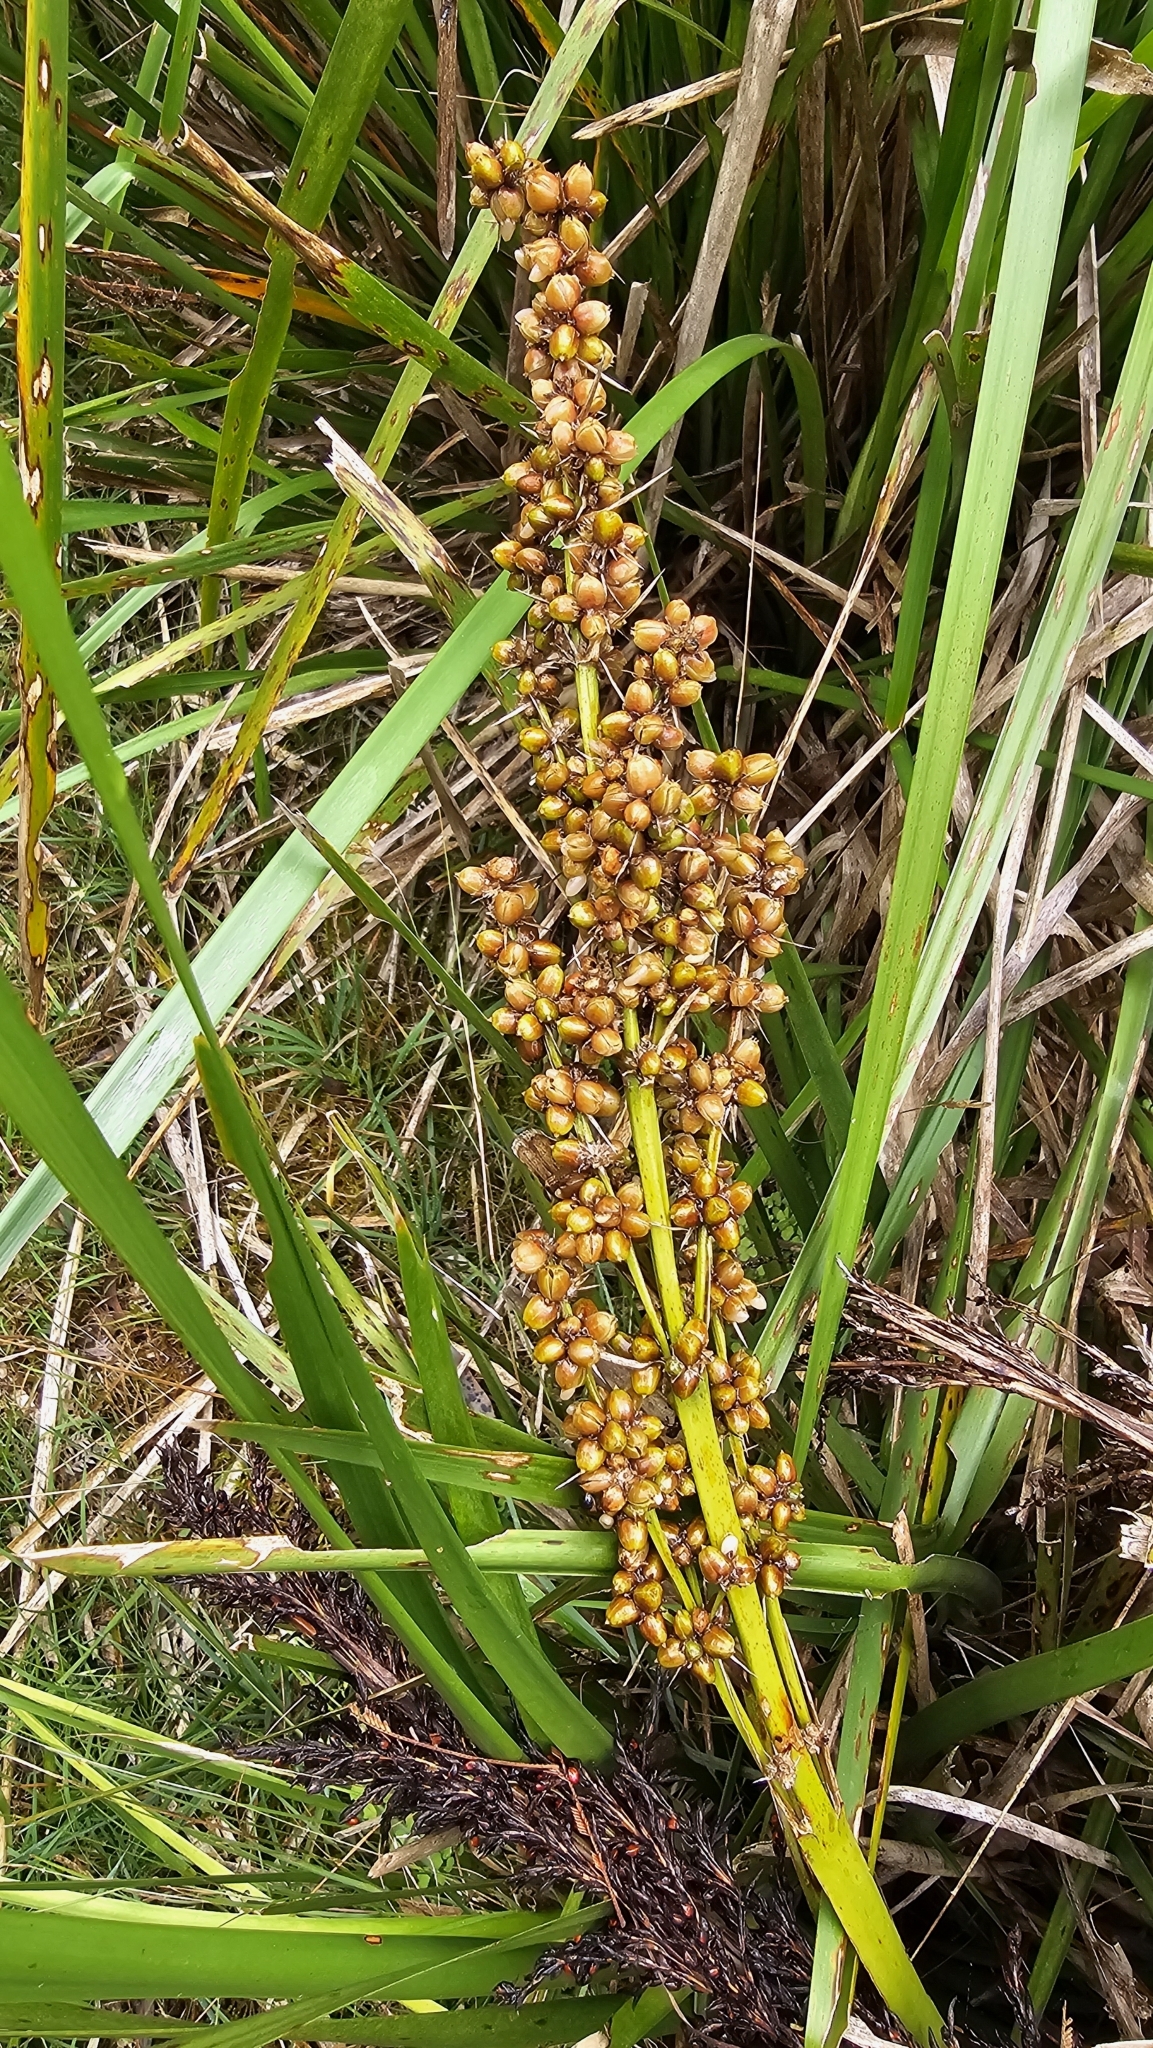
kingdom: Plantae
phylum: Tracheophyta
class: Liliopsida
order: Asparagales
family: Asparagaceae
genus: Lomandra
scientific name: Lomandra longifolia
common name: Longleaf mat-rush
